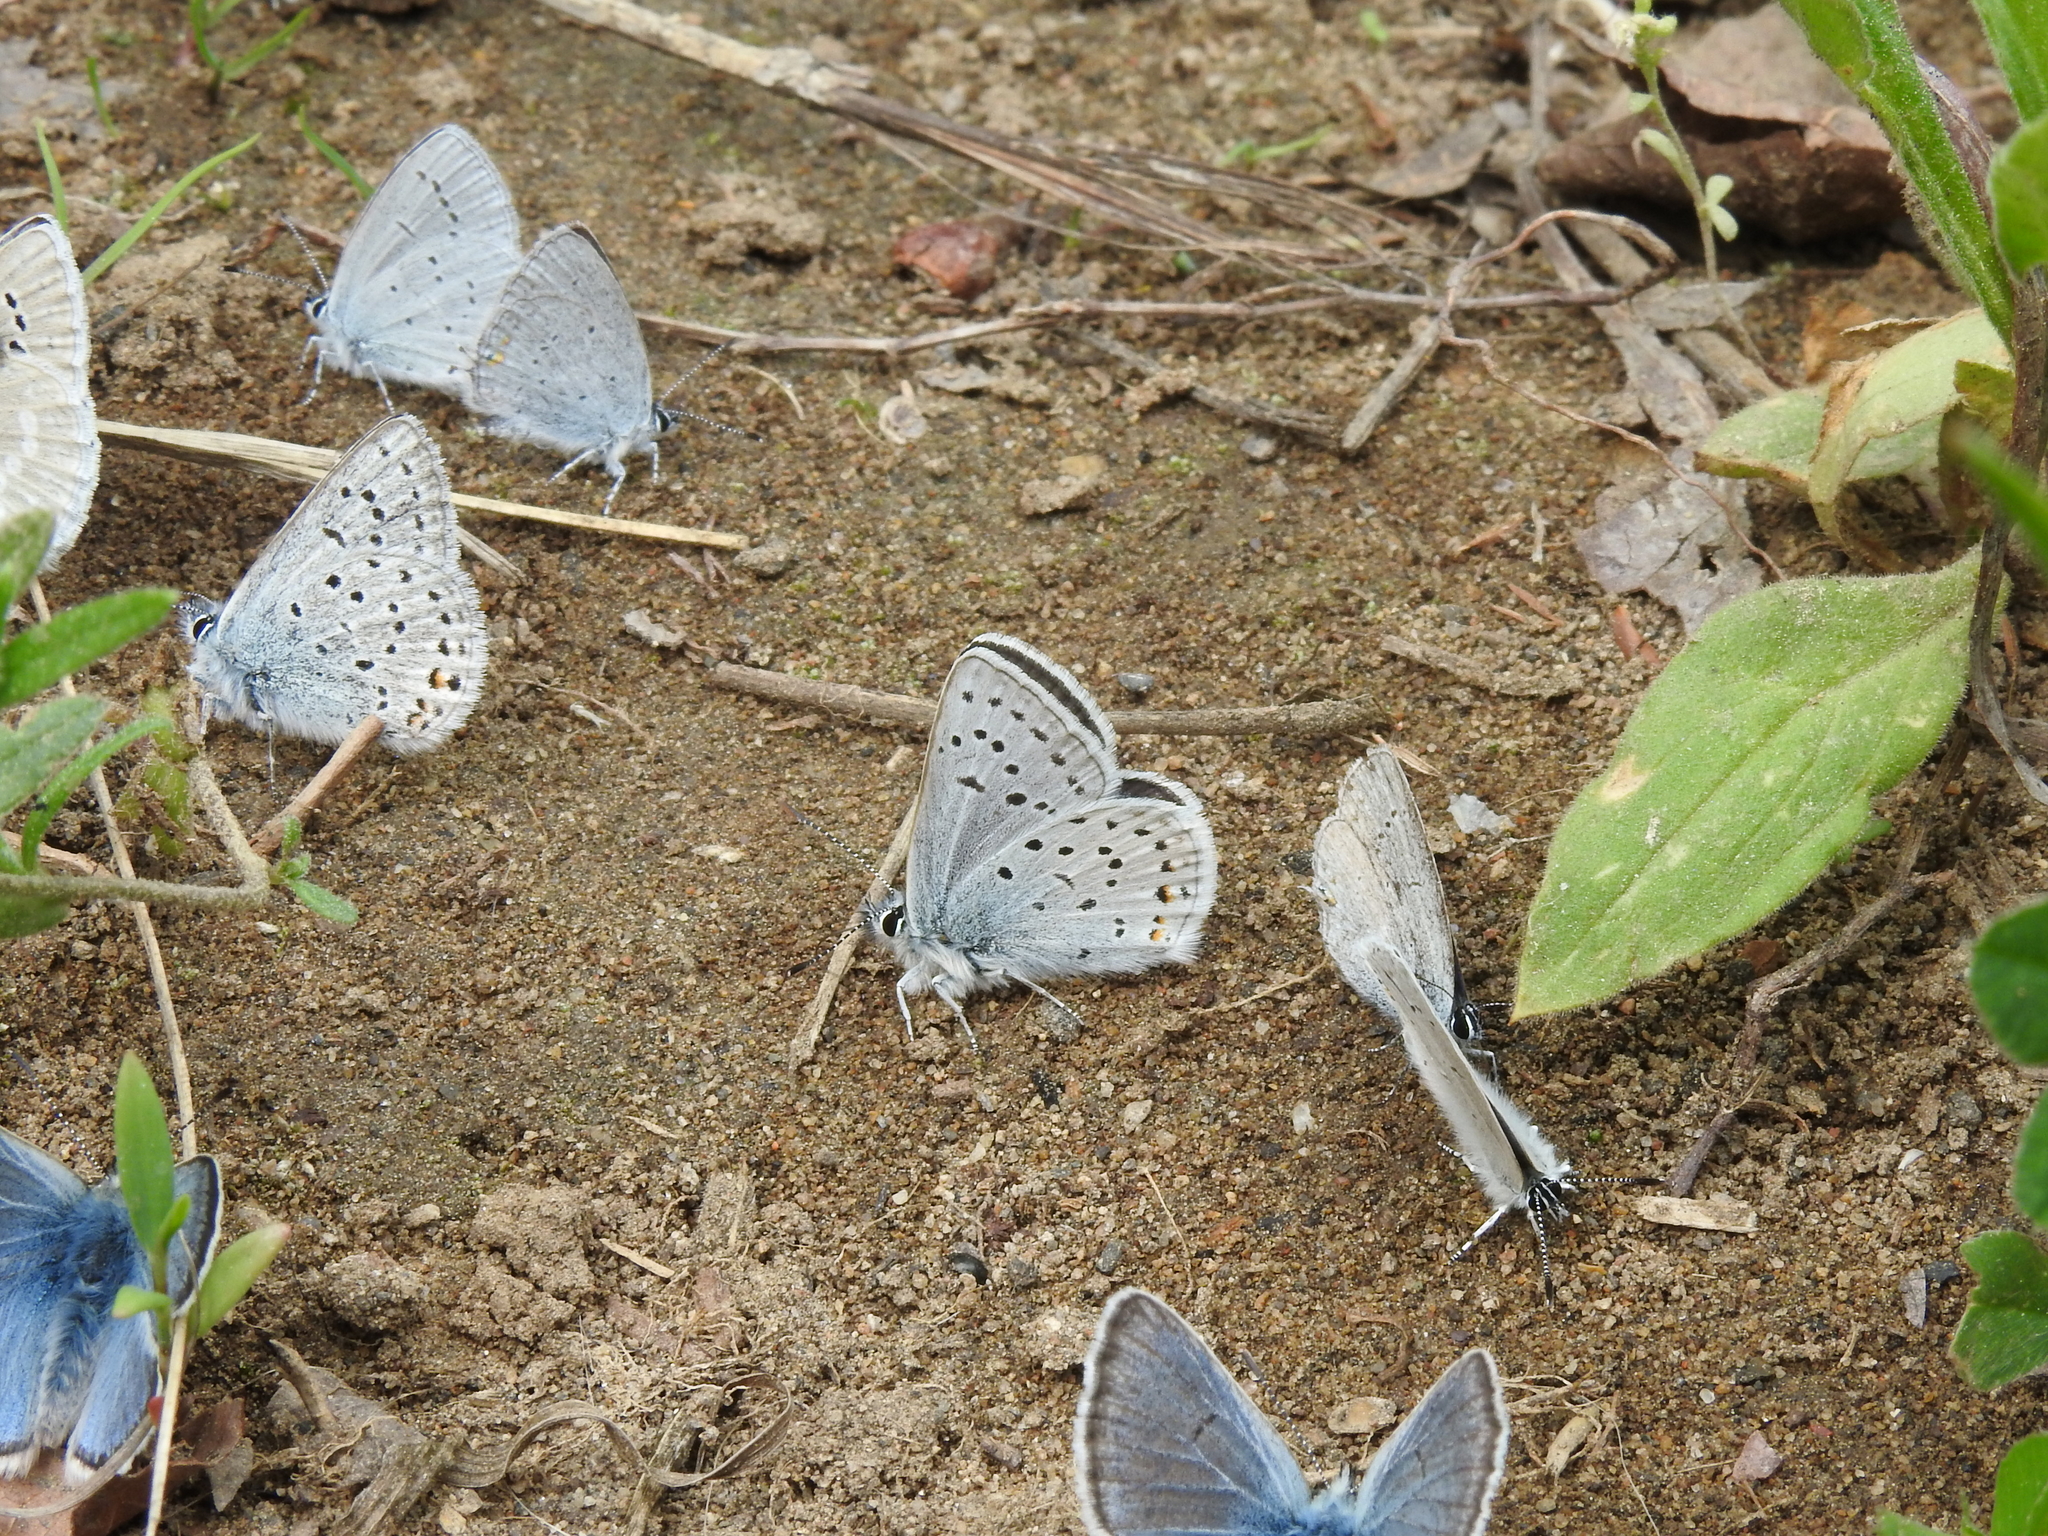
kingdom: Animalia
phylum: Arthropoda
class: Insecta
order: Lepidoptera
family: Lycaenidae
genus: Icaricia
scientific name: Icaricia saepiolus
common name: Greenish blue
